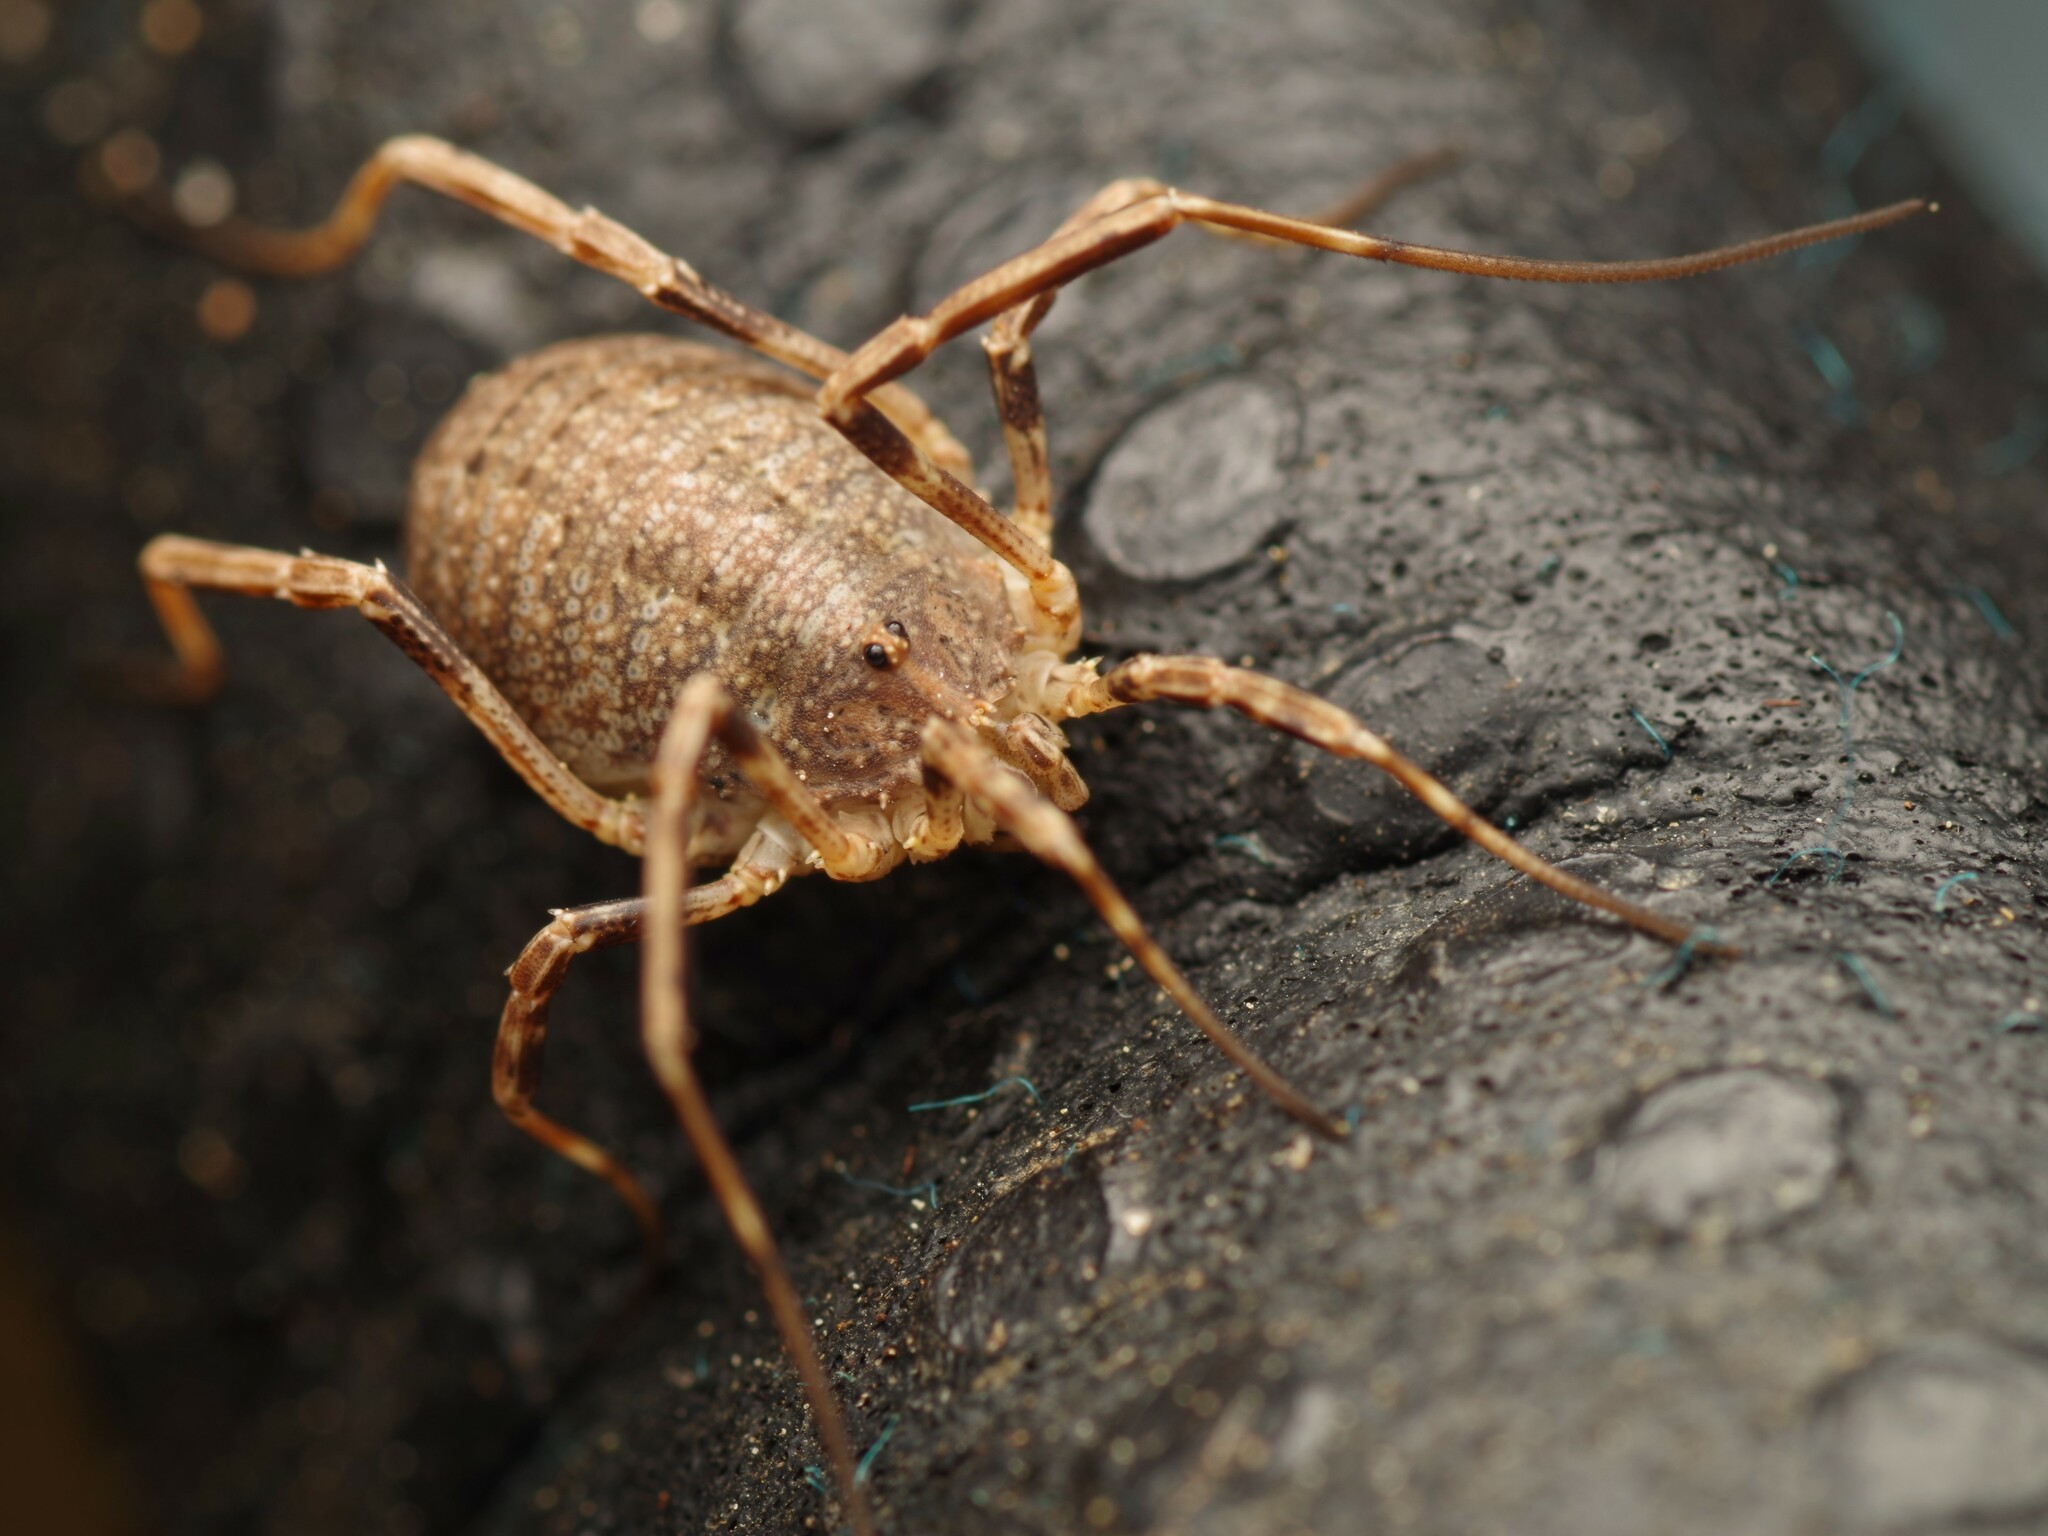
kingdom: Animalia
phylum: Arthropoda
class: Arachnida
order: Opiliones
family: Phalangiidae
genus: Odiellus
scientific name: Odiellus spinosus
